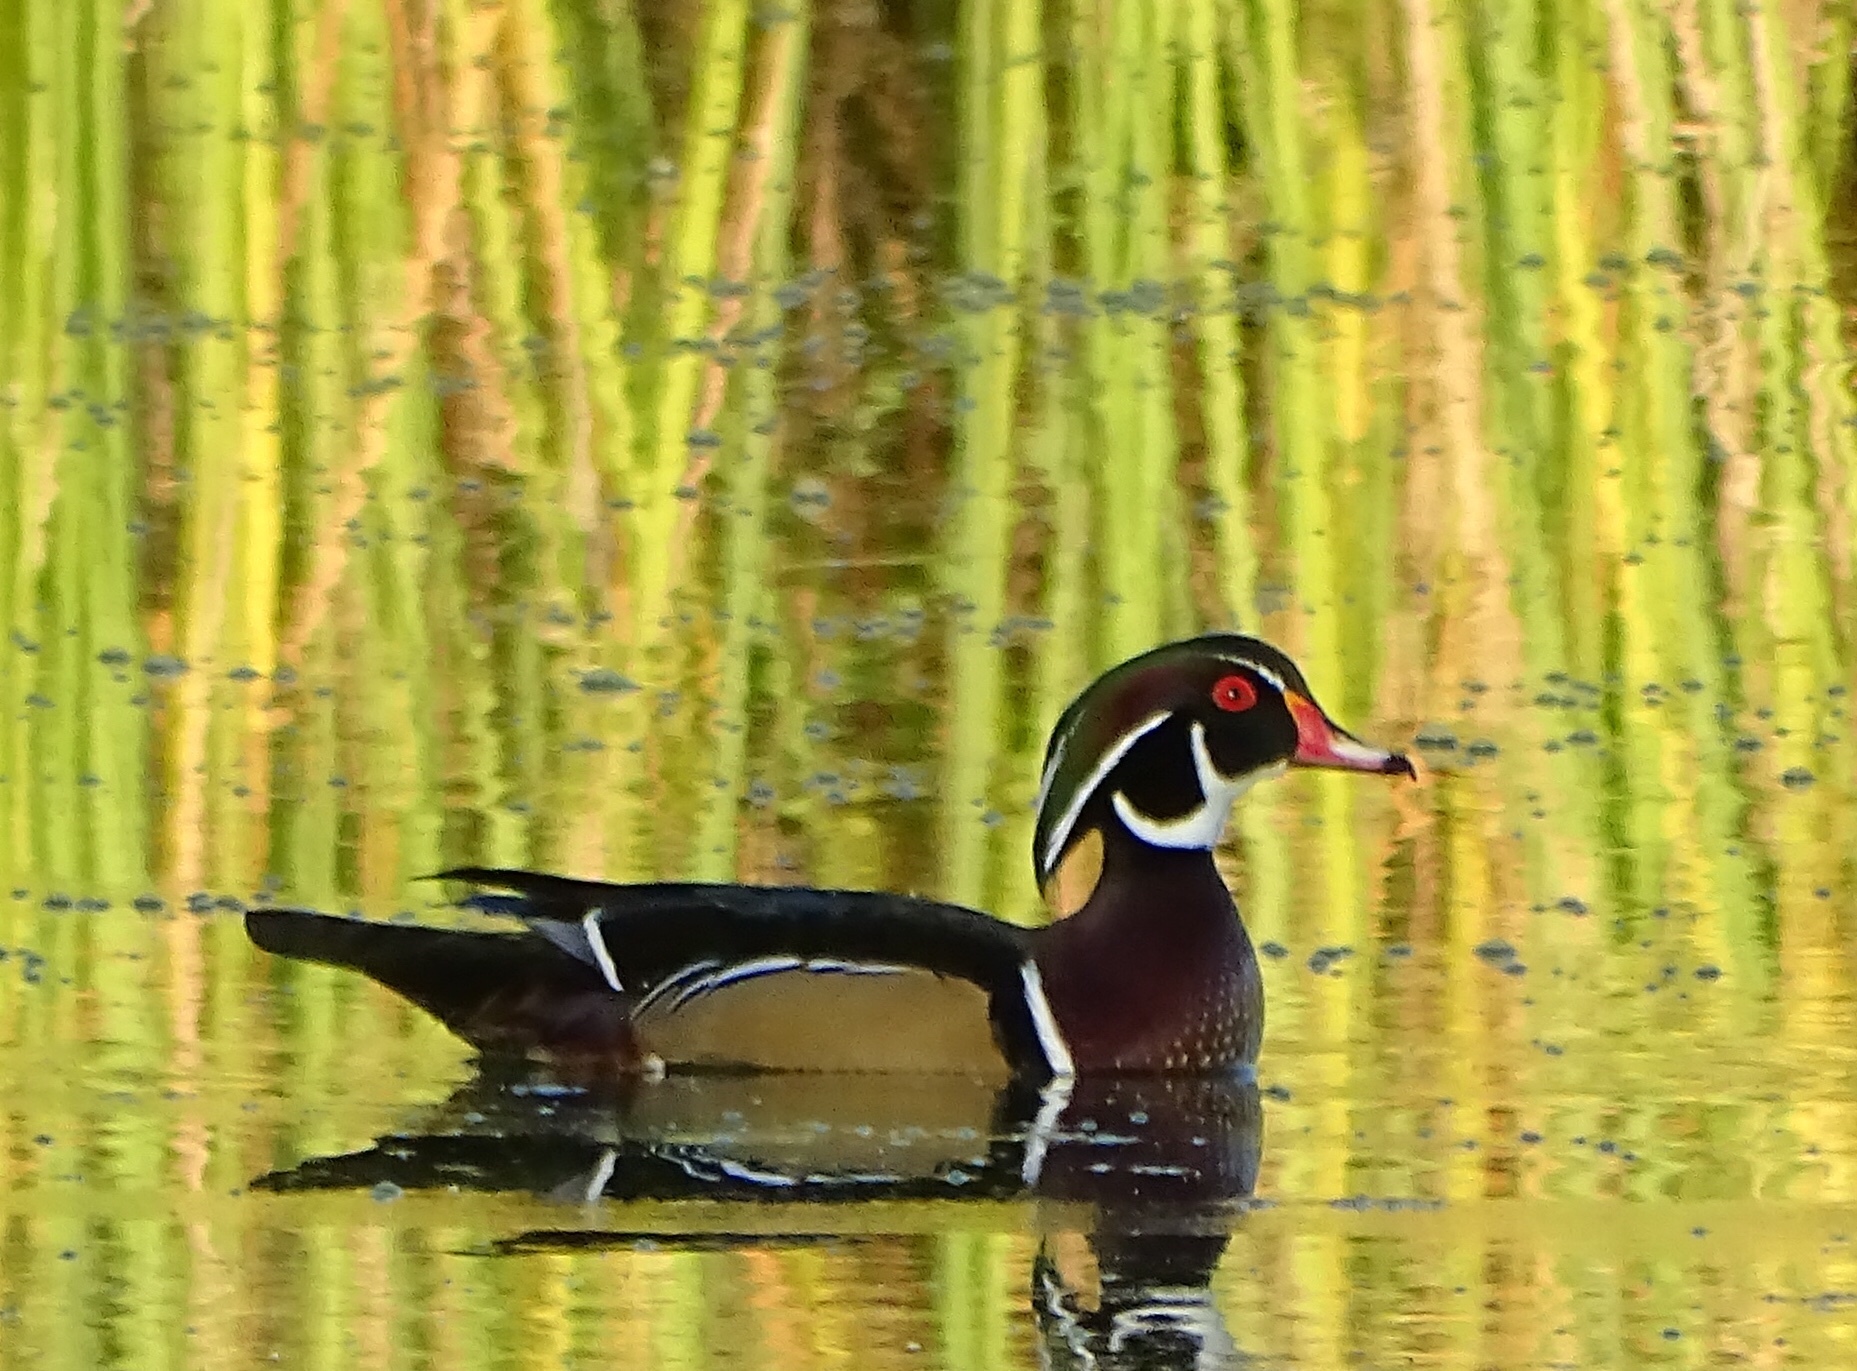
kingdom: Animalia
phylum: Chordata
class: Aves
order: Anseriformes
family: Anatidae
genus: Aix
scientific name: Aix sponsa
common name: Wood duck
